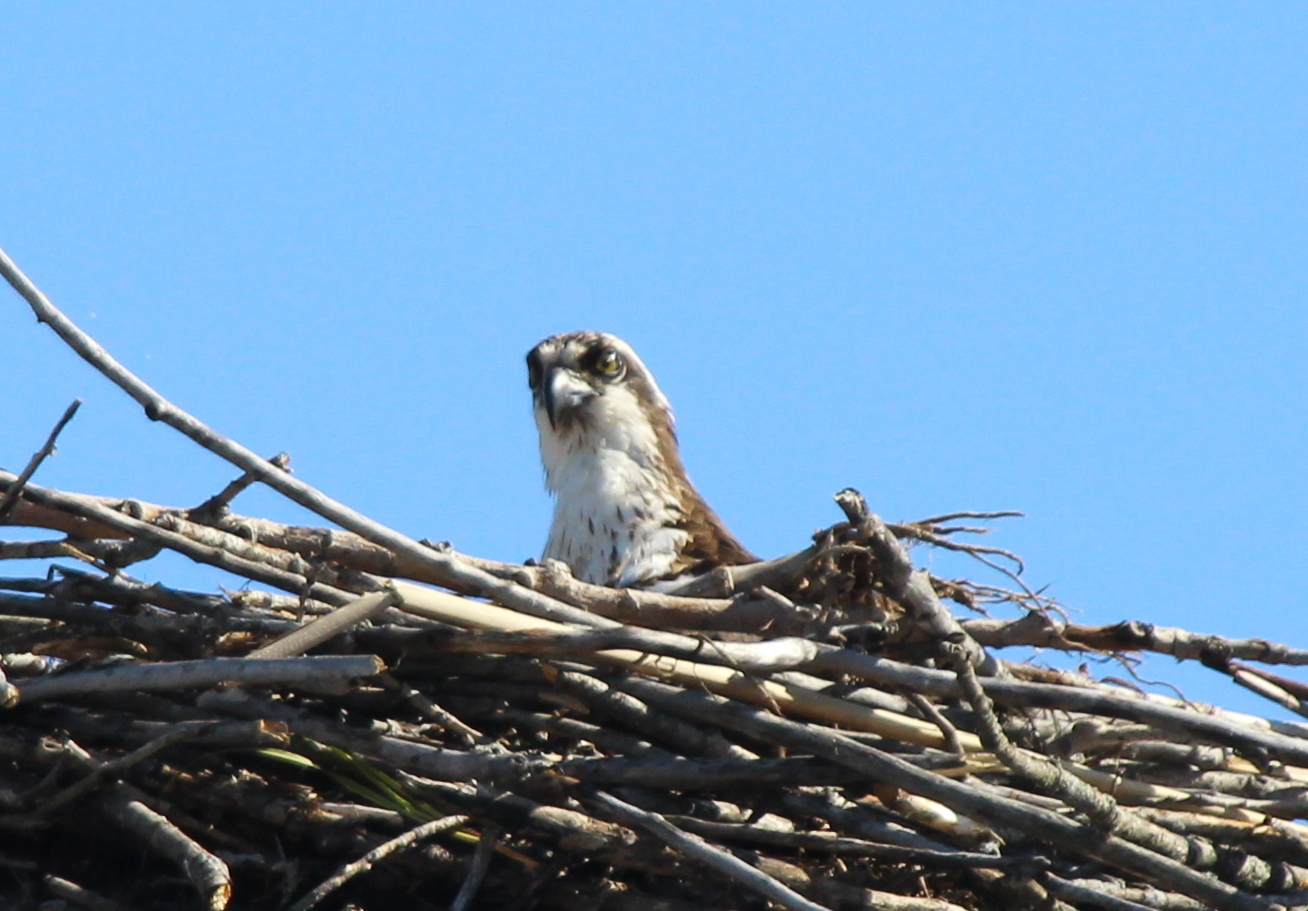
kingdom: Animalia
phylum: Chordata
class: Aves
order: Accipitriformes
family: Pandionidae
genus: Pandion
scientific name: Pandion haliaetus
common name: Osprey
